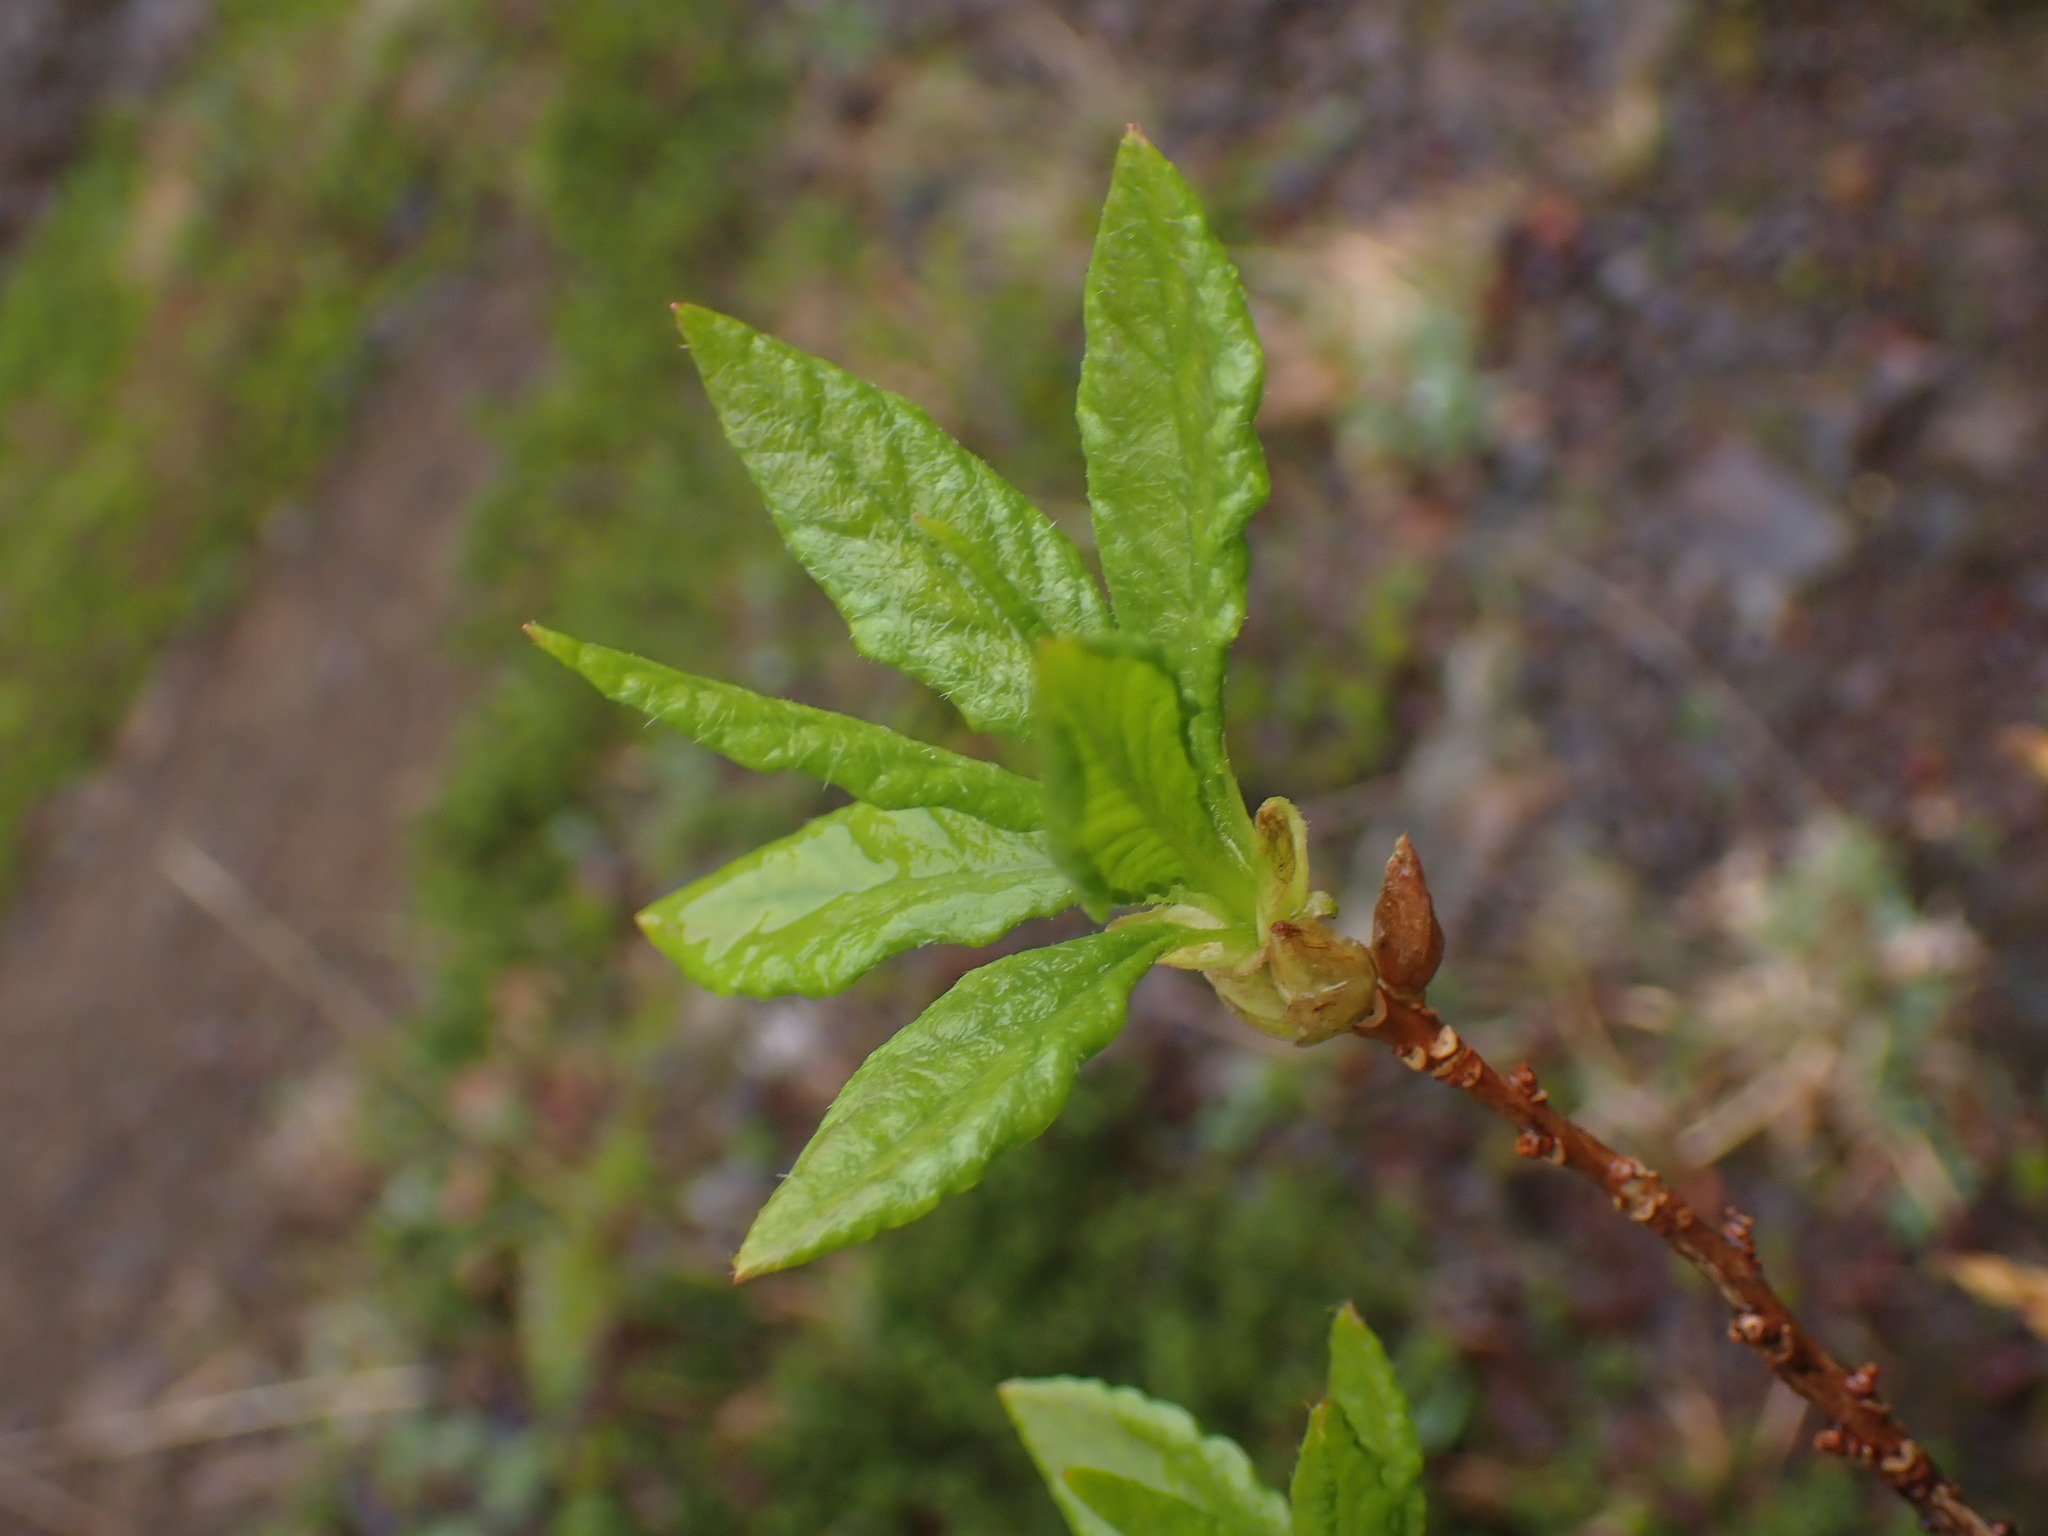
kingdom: Plantae
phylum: Tracheophyta
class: Magnoliopsida
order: Ericales
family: Ericaceae
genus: Rhododendron
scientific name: Rhododendron albiflorum
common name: White rhododendron
